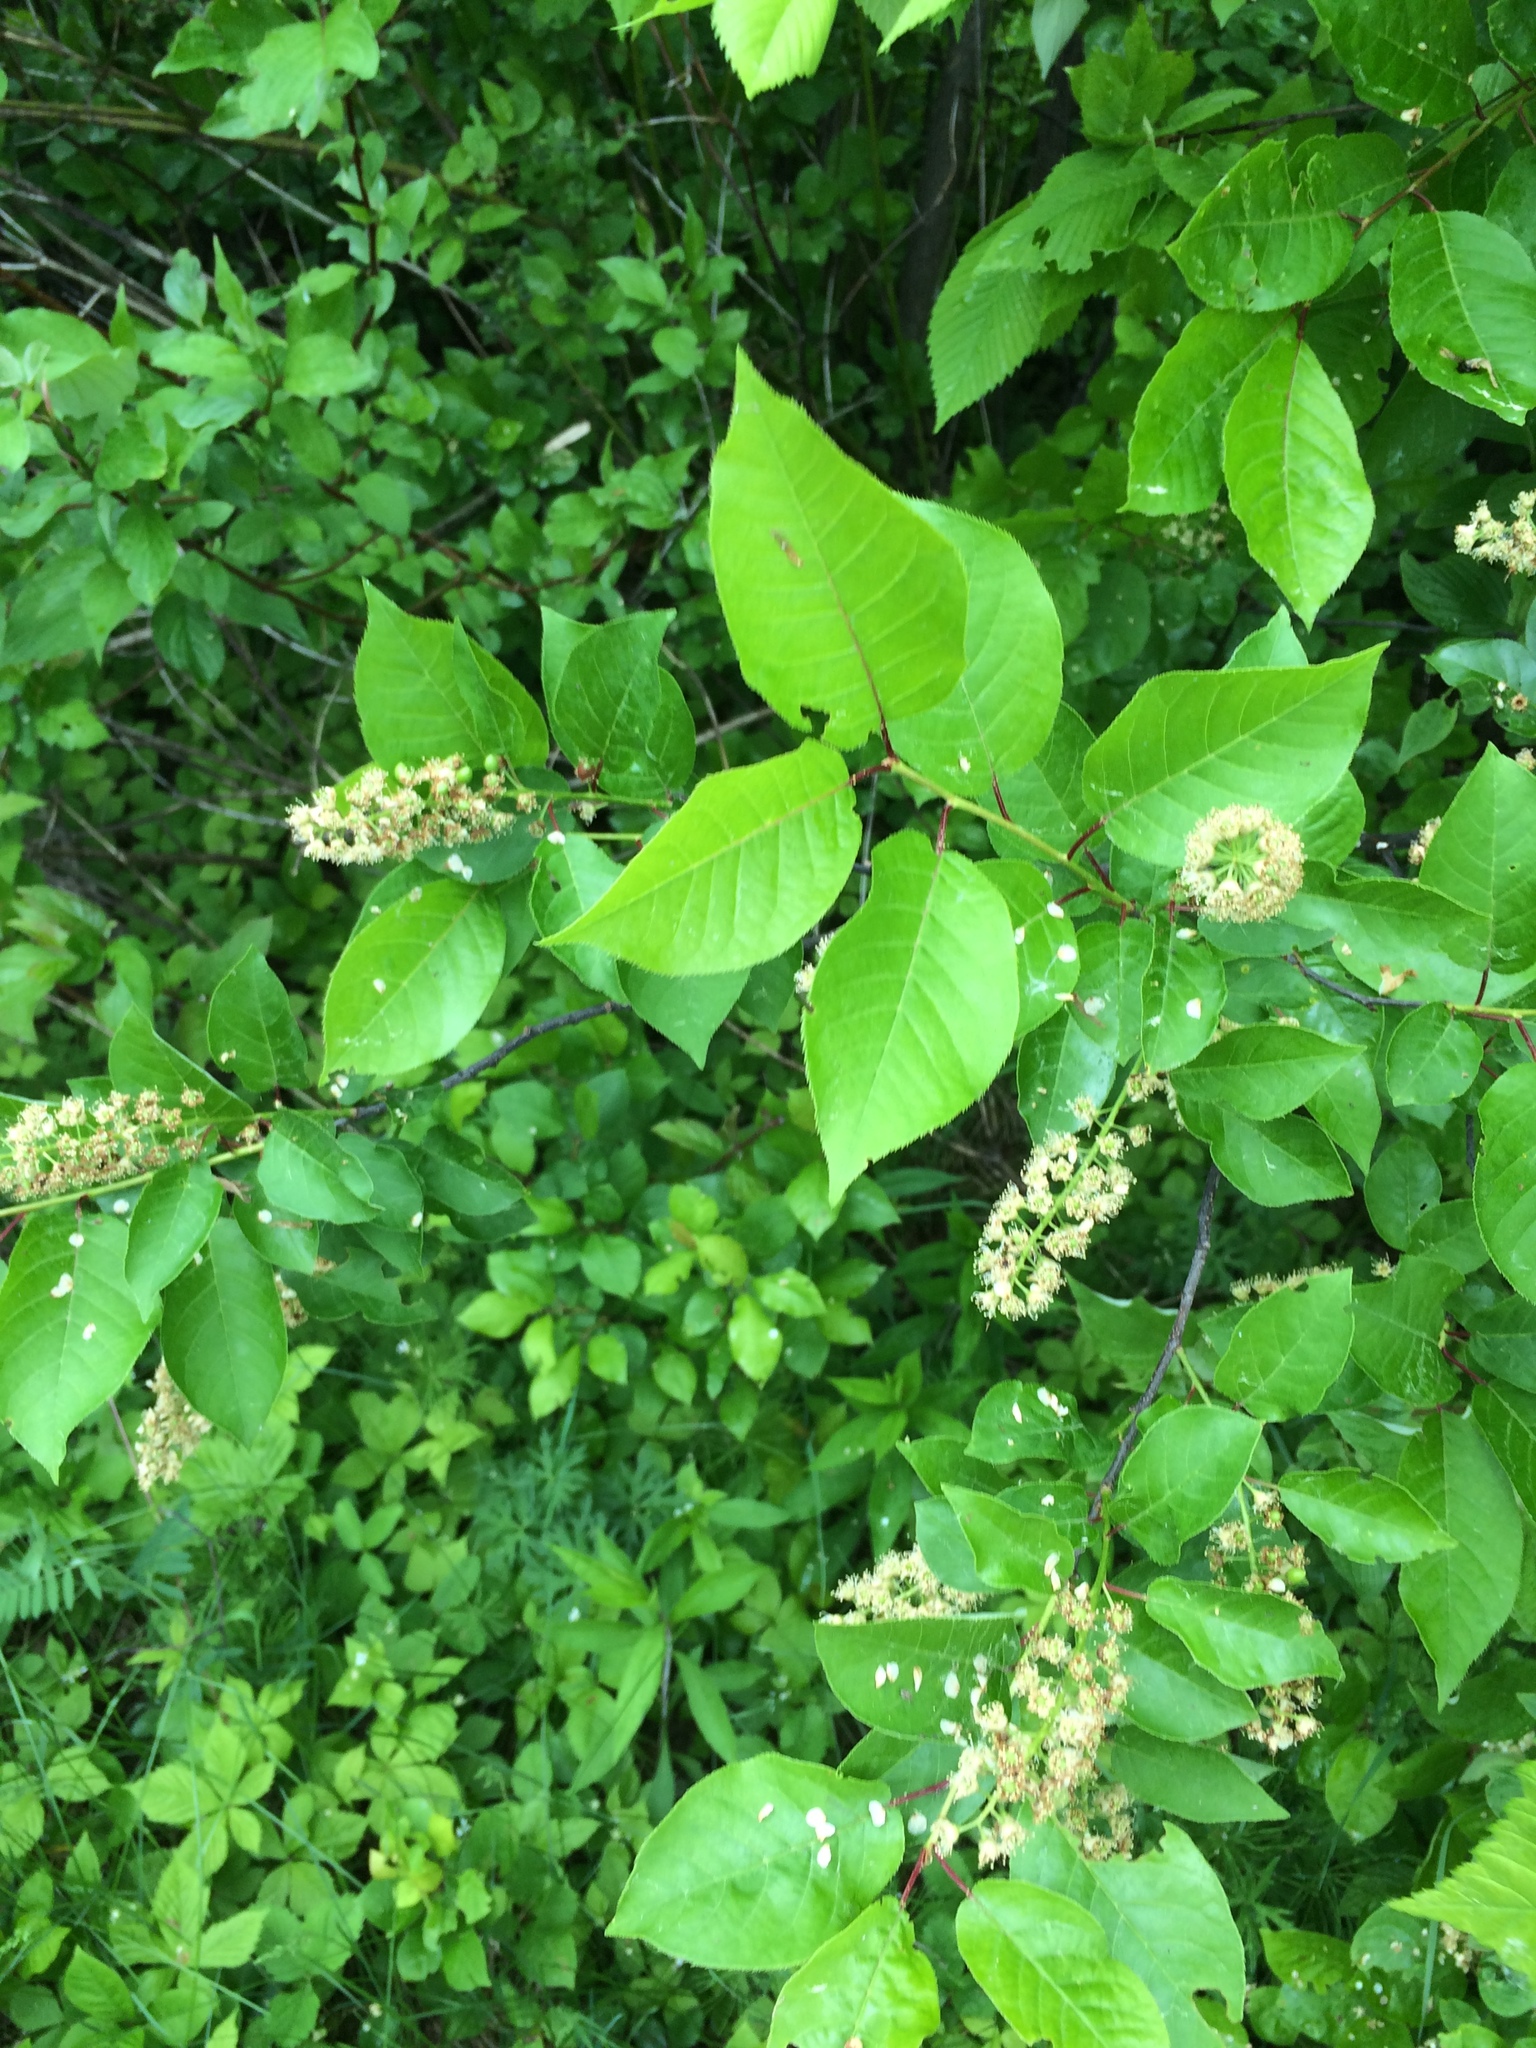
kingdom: Plantae
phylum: Tracheophyta
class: Magnoliopsida
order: Rosales
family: Rosaceae
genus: Prunus
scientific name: Prunus virginiana
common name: Chokecherry
